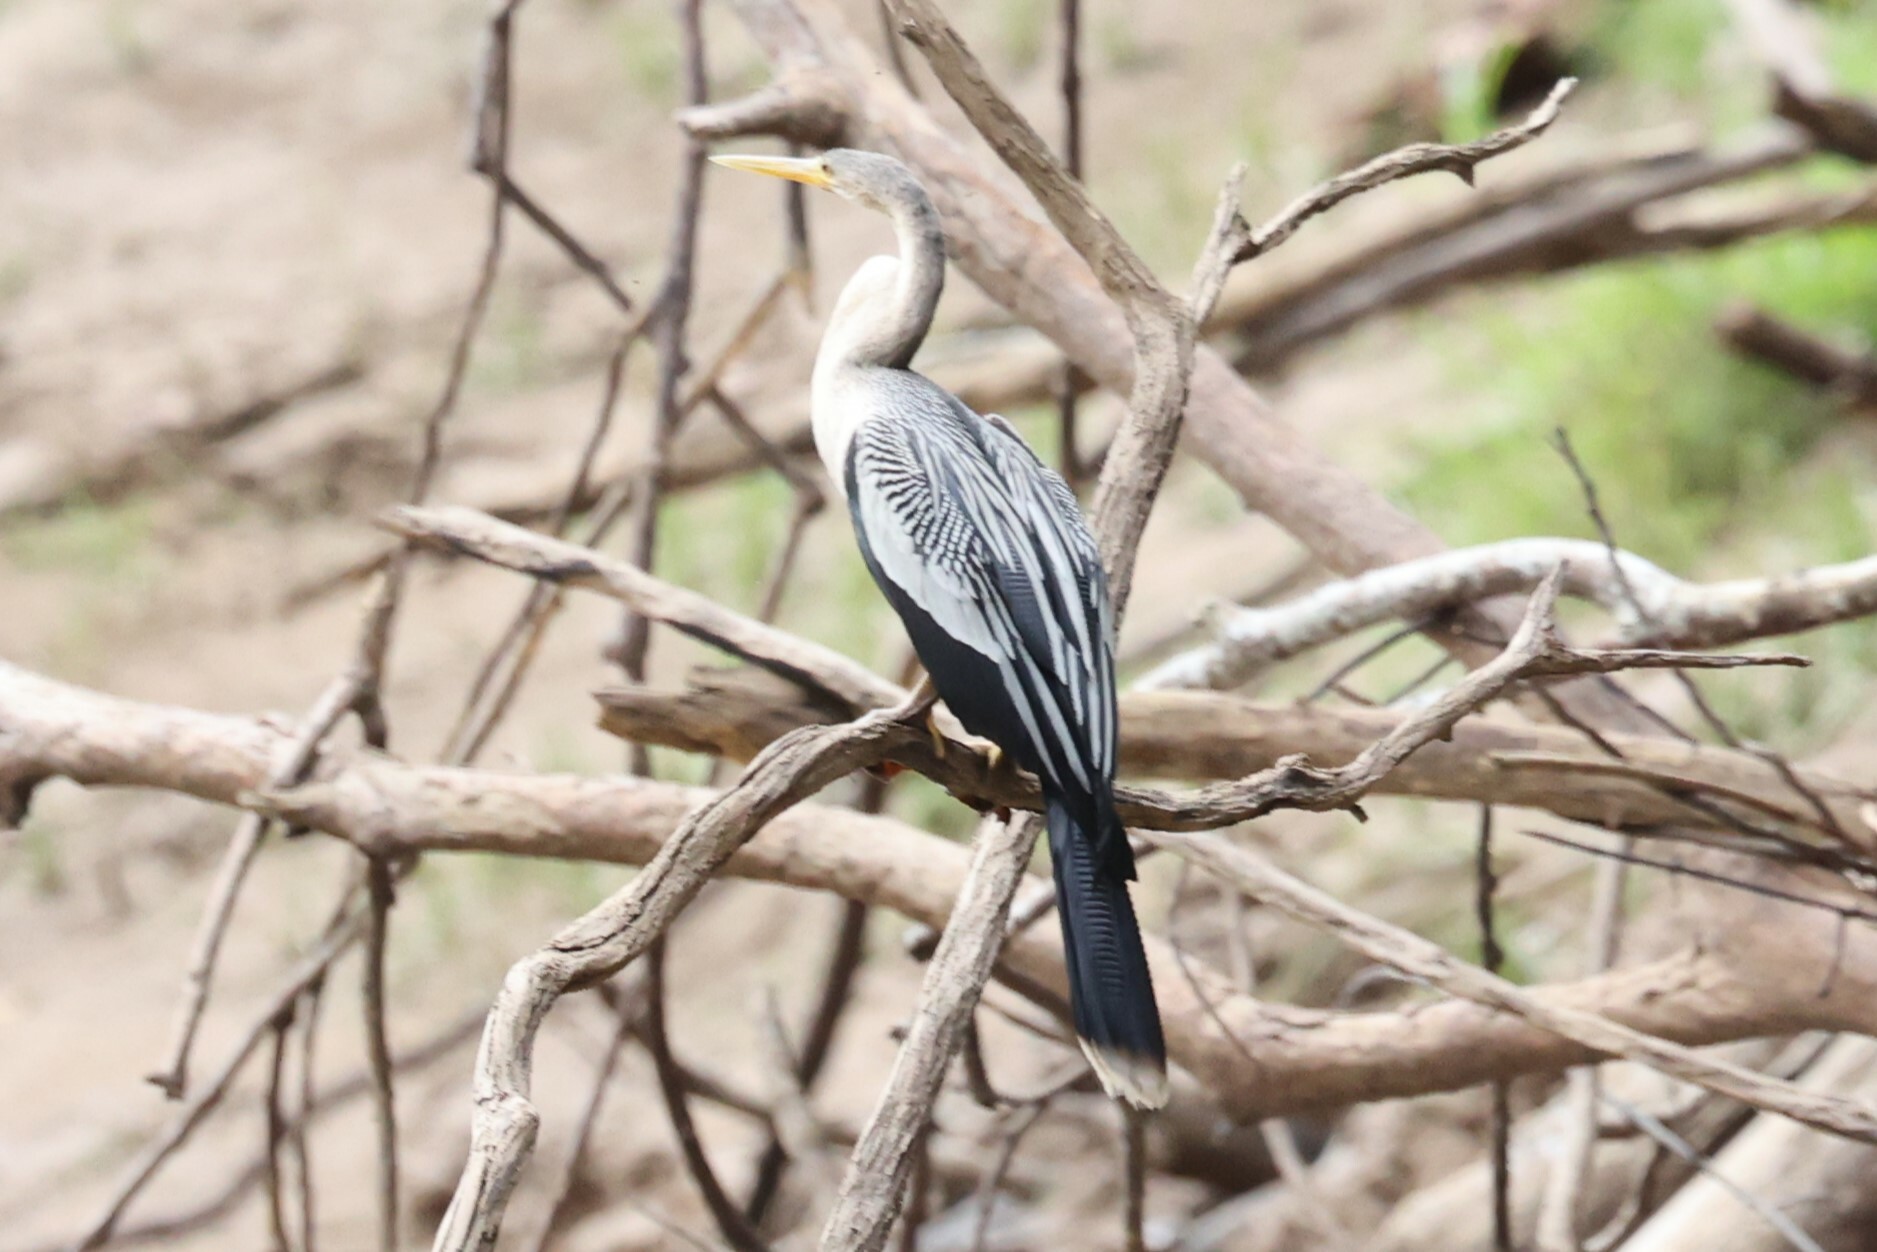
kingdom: Animalia
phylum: Chordata
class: Aves
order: Suliformes
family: Anhingidae
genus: Anhinga
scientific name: Anhinga anhinga
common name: Anhinga
